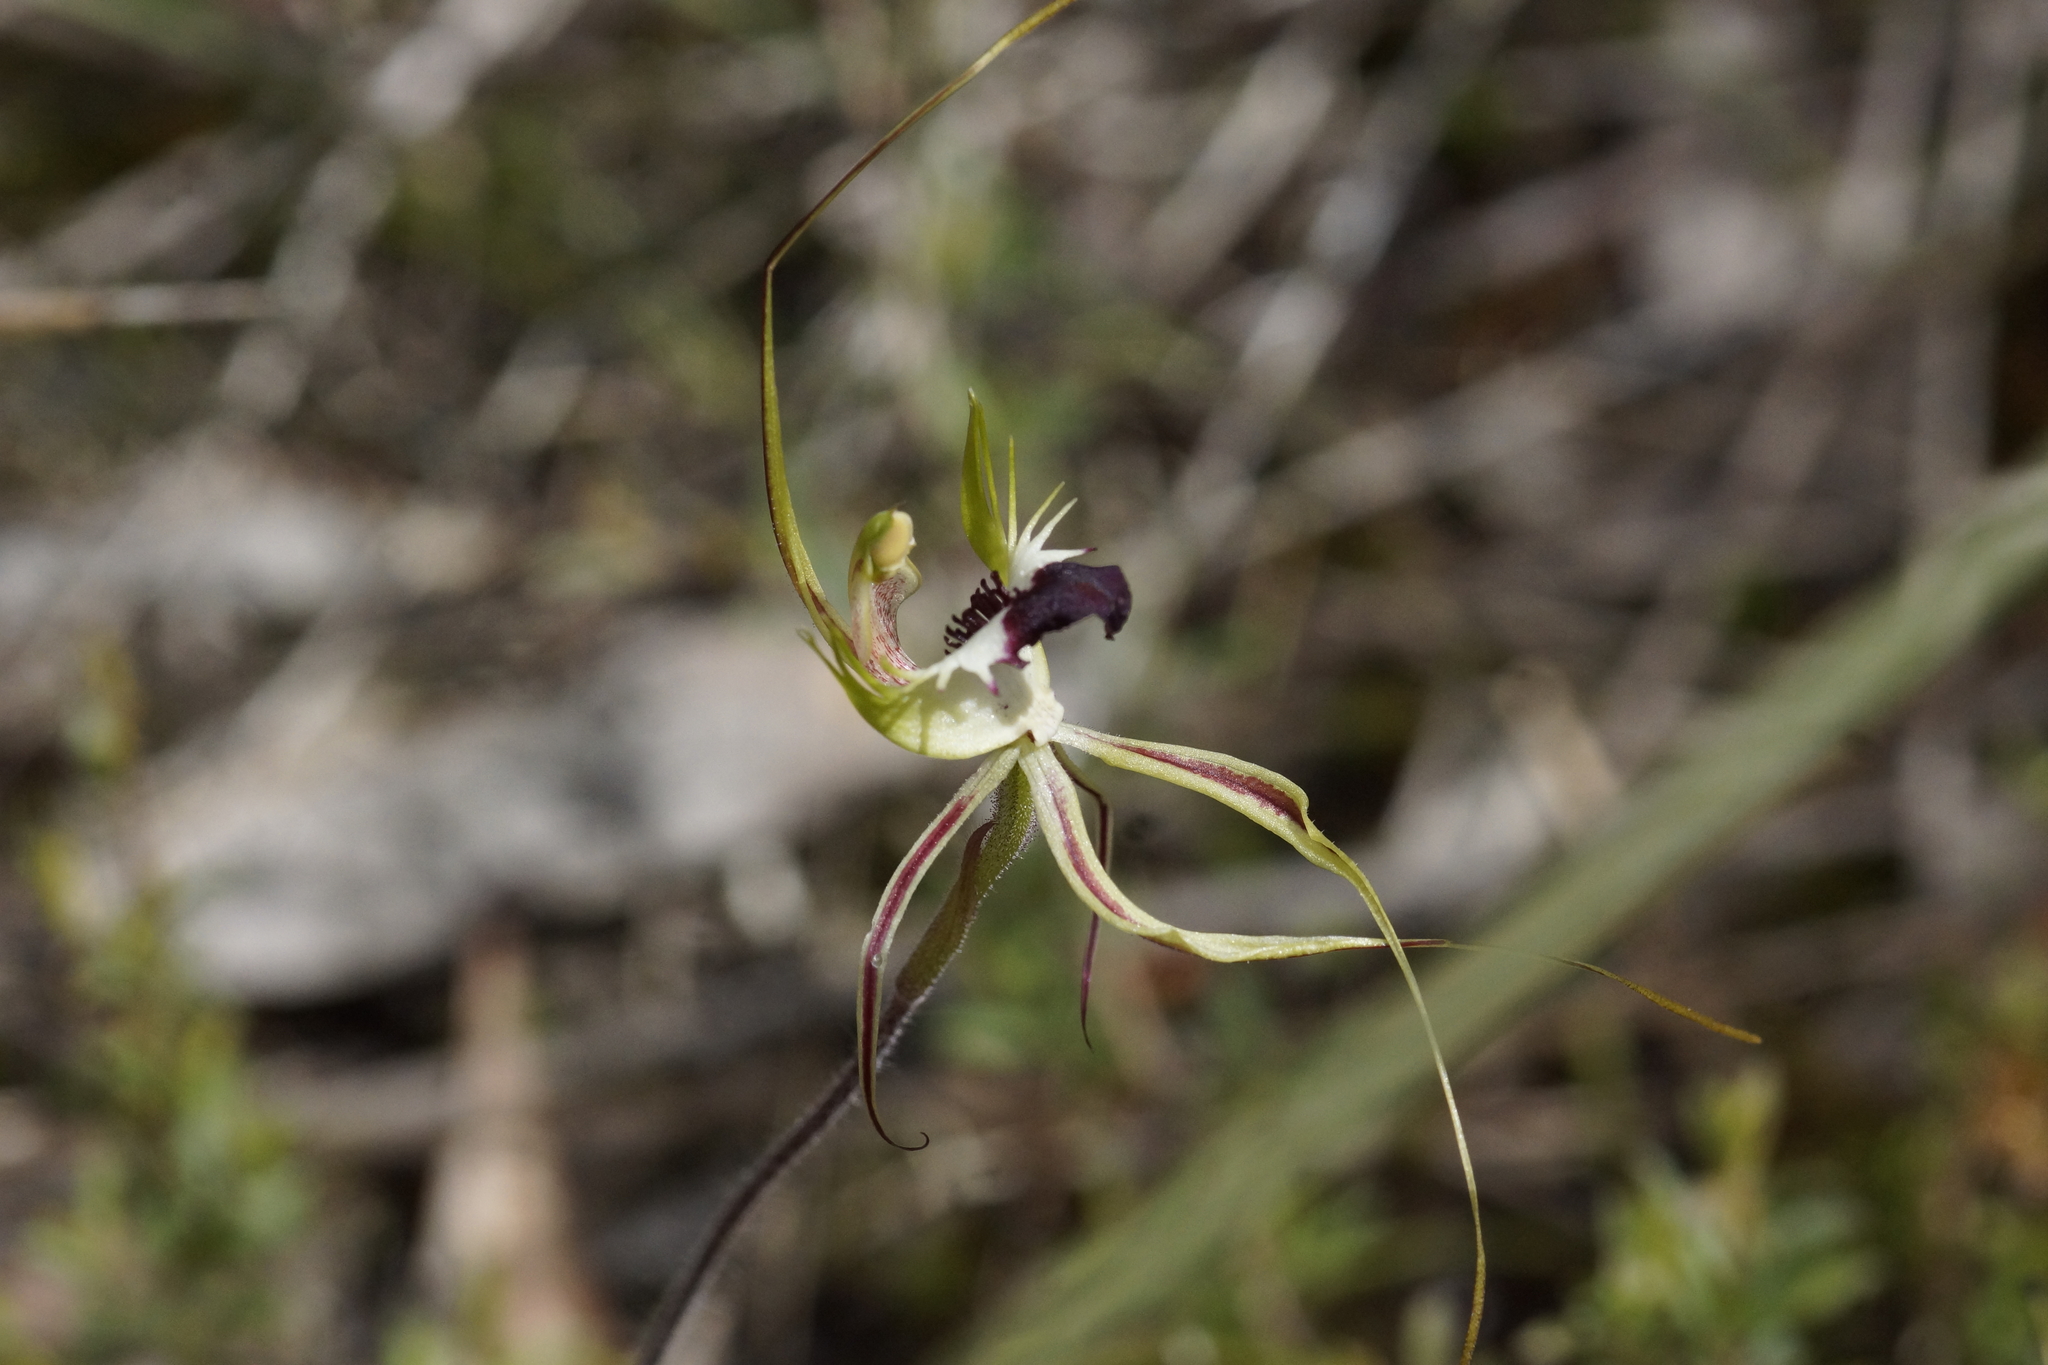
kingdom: Plantae
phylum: Tracheophyta
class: Liliopsida
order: Asparagales
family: Orchidaceae
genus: Caladenia
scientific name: Caladenia tentaculata
